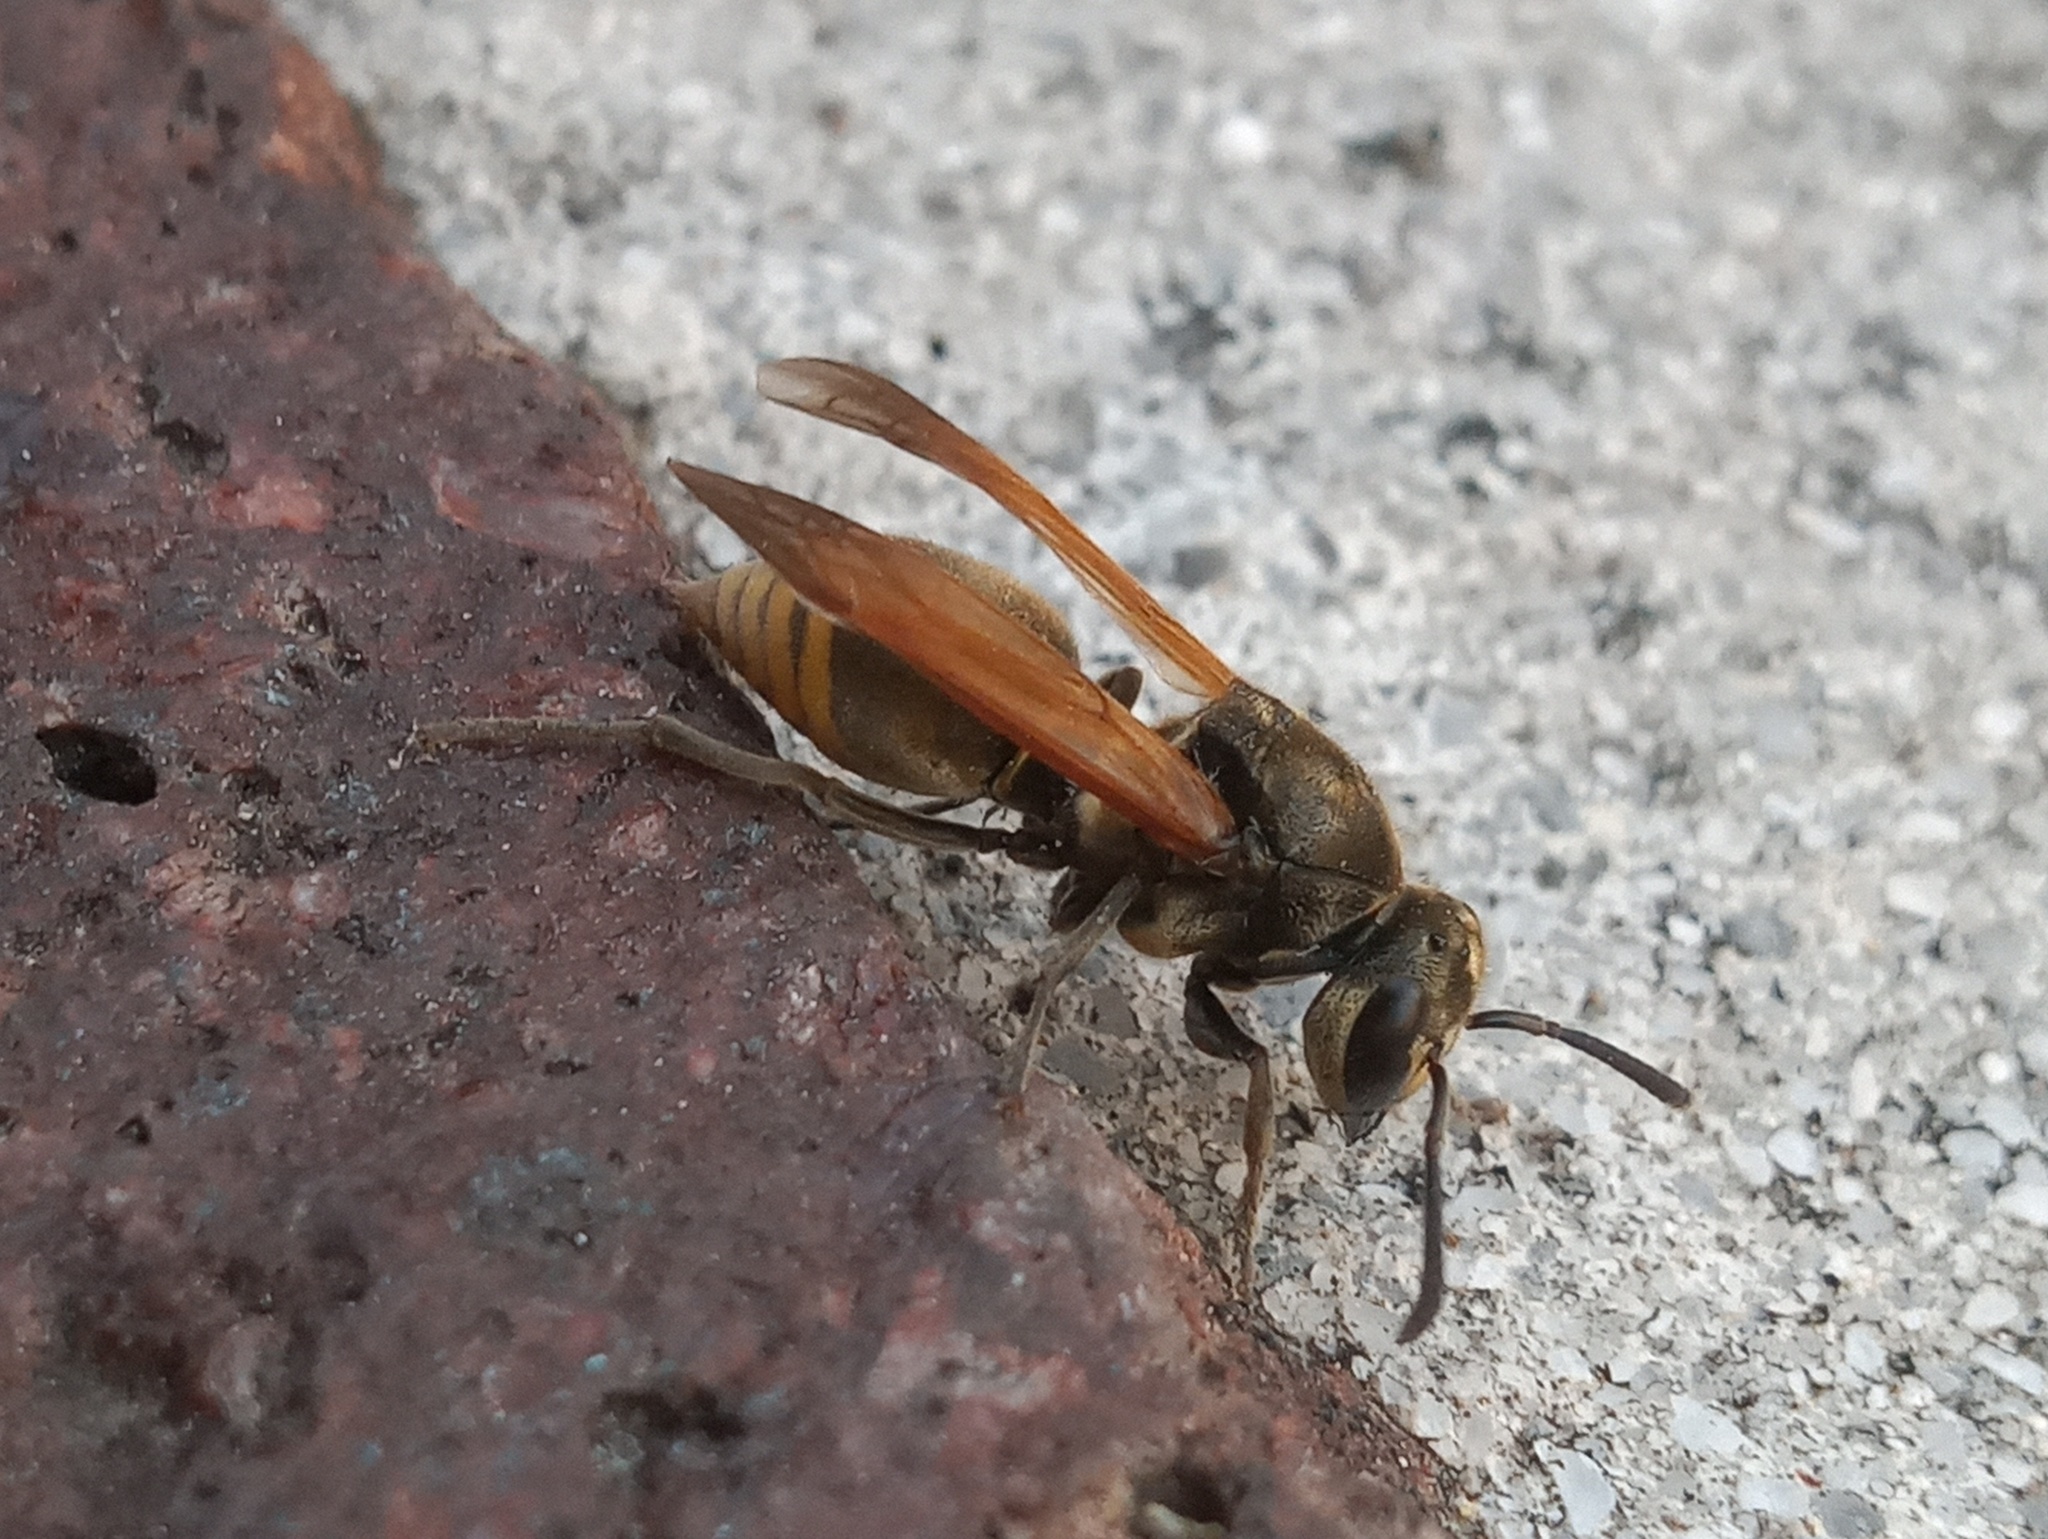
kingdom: Animalia
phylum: Arthropoda
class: Insecta
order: Hymenoptera
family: Vespidae
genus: Brachygastra
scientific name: Brachygastra mellifica
